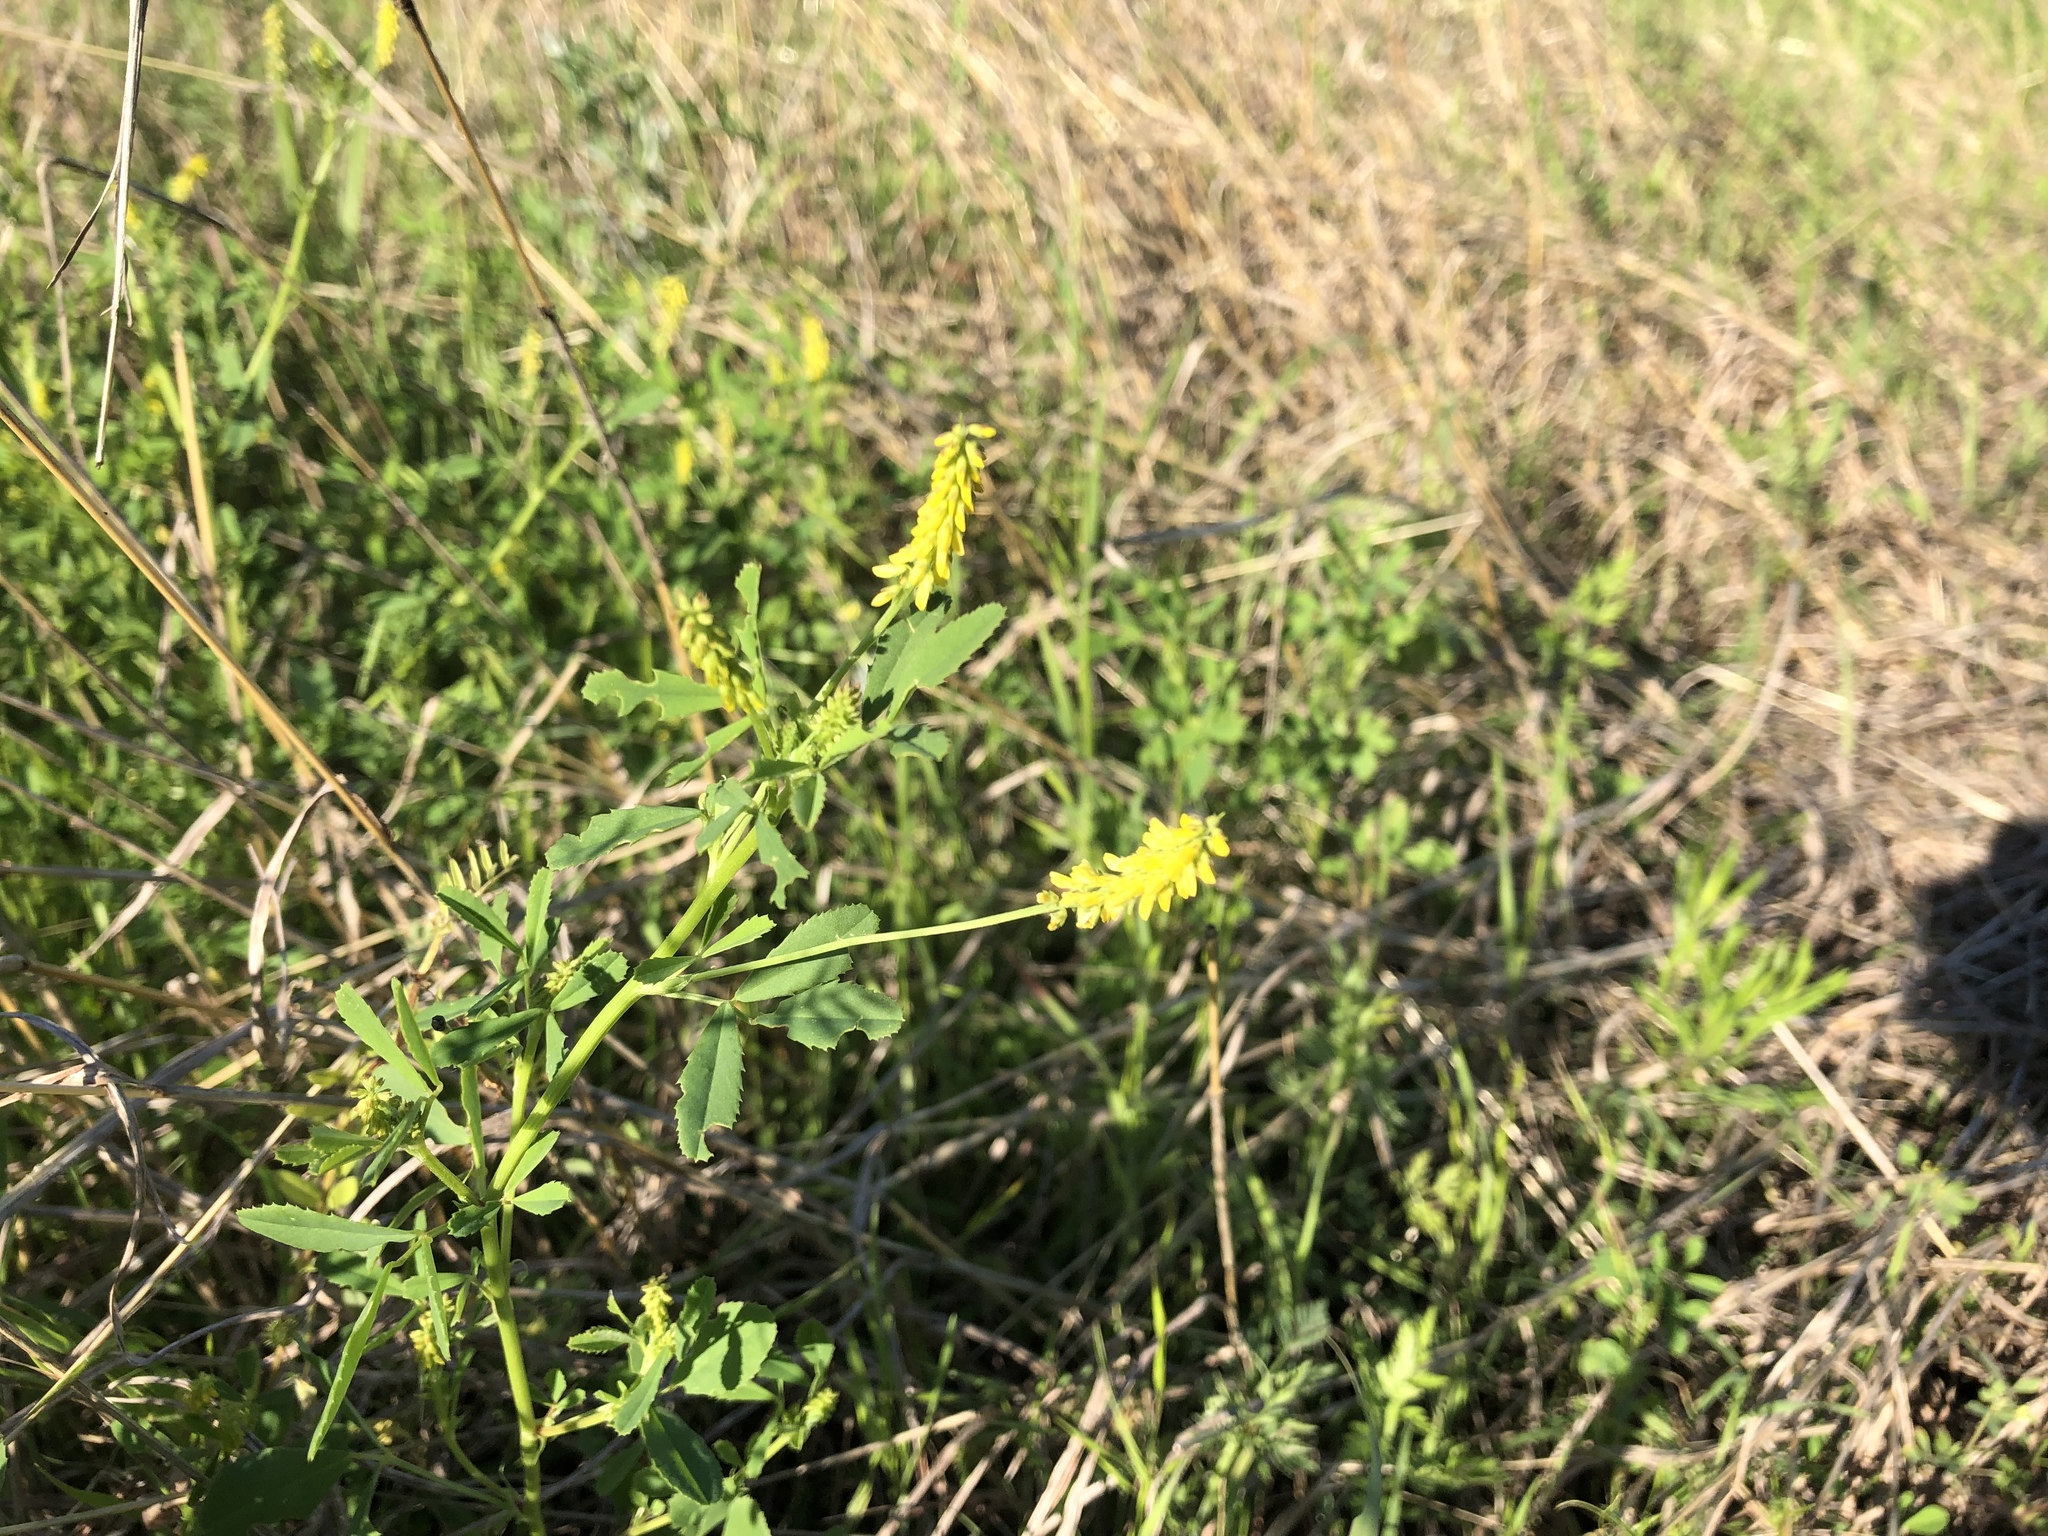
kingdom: Plantae
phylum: Tracheophyta
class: Magnoliopsida
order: Fabales
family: Fabaceae
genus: Melilotus
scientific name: Melilotus indicus
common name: Small melilot
